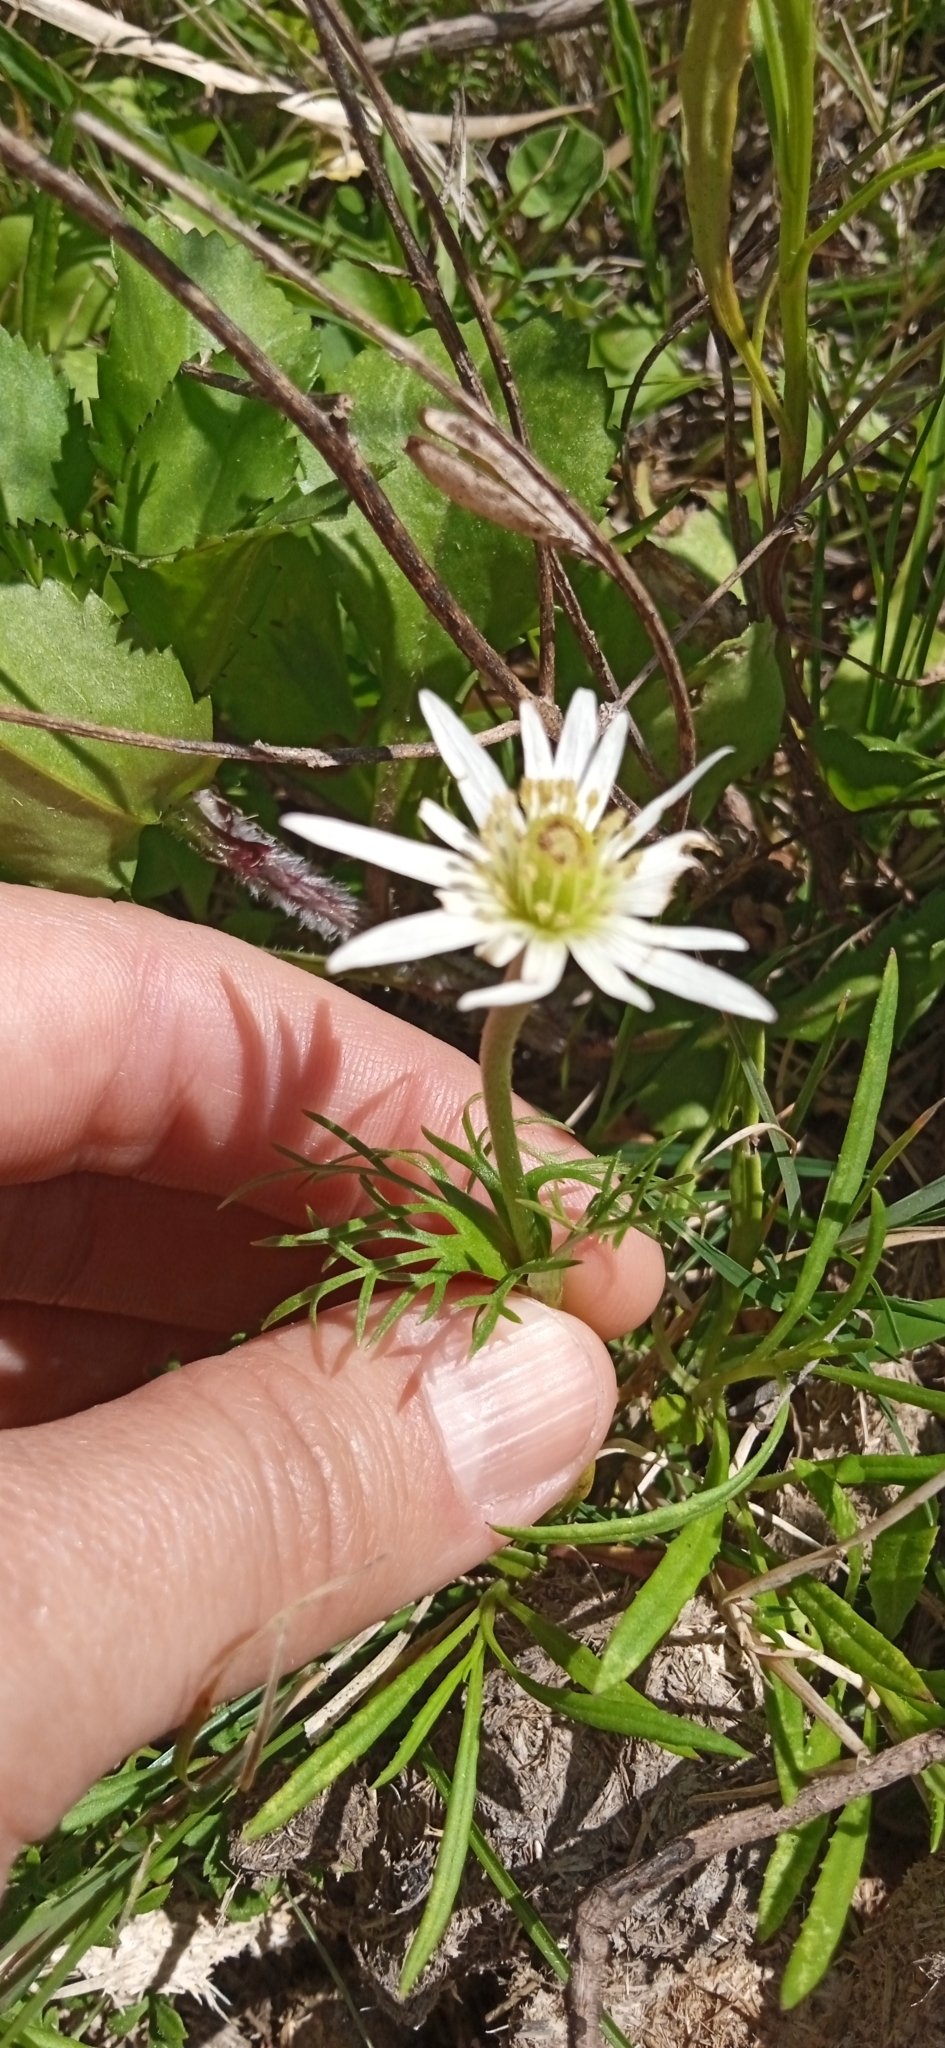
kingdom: Plantae
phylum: Tracheophyta
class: Magnoliopsida
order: Ranunculales
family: Ranunculaceae
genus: Anemone
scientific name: Anemone decapetala
